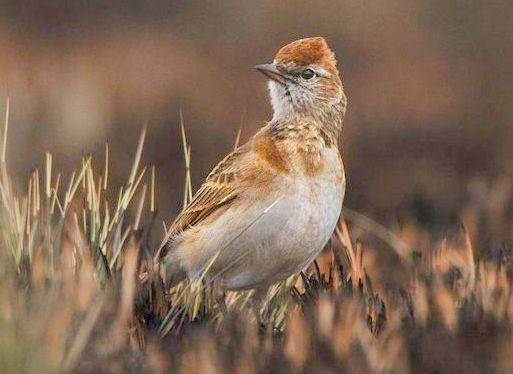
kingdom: Animalia
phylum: Chordata
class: Aves
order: Passeriformes
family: Alaudidae
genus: Calandrella
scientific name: Calandrella cinerea
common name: Red-capped lark
